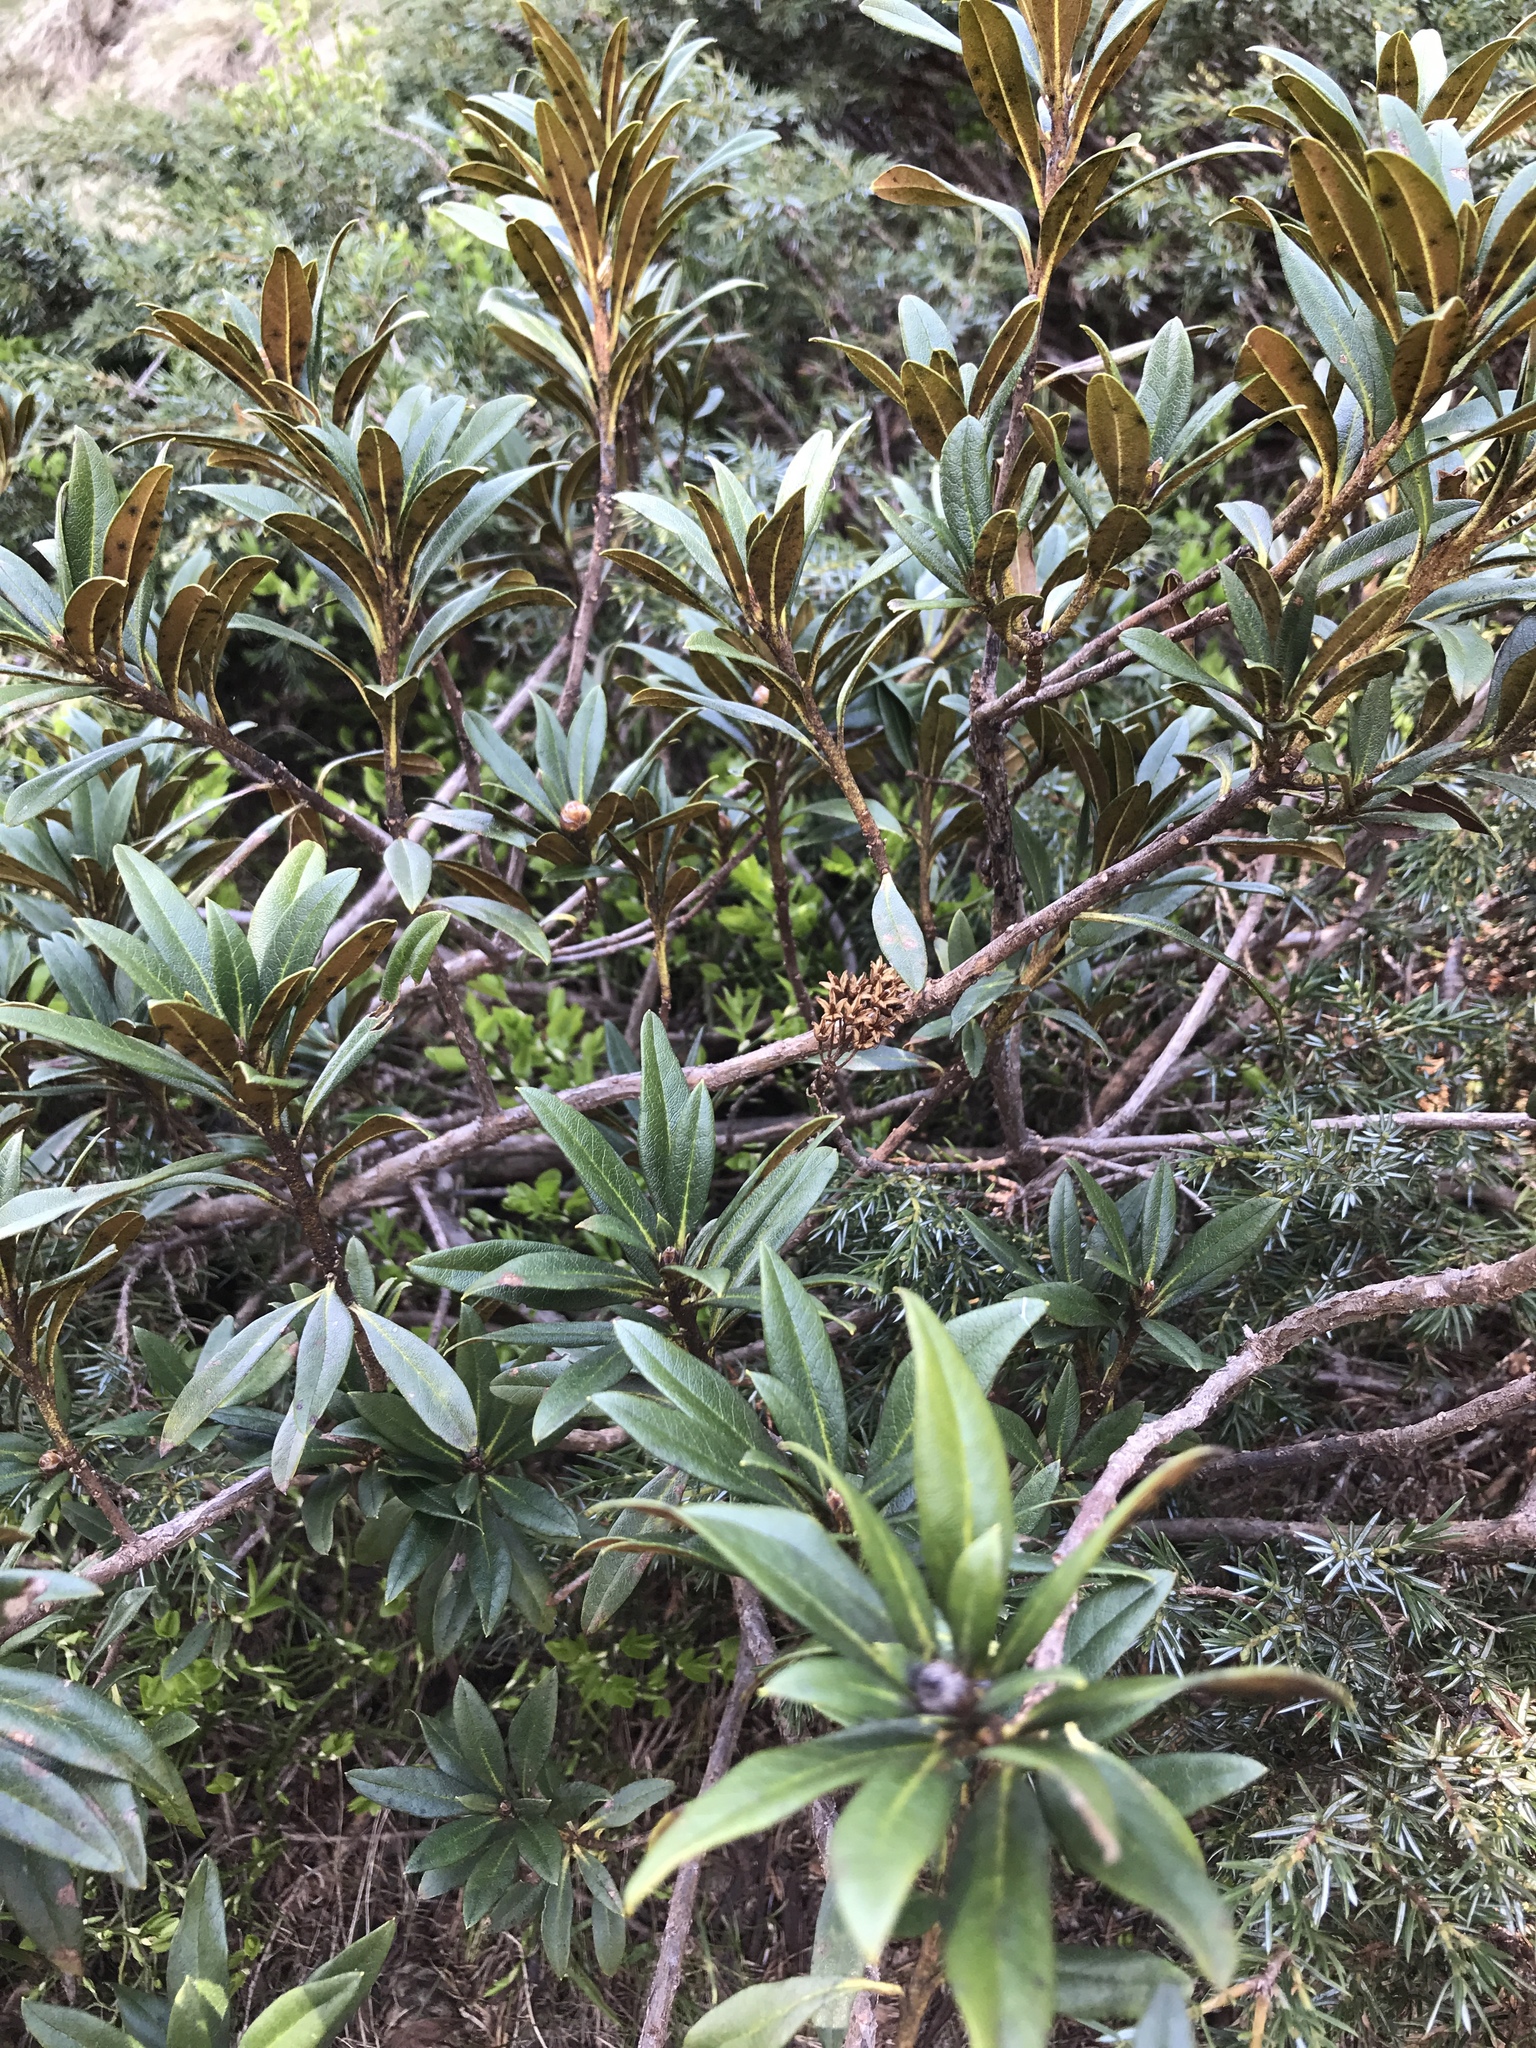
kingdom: Plantae
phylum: Tracheophyta
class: Magnoliopsida
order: Ericales
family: Ericaceae
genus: Rhododendron
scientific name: Rhododendron ferrugineum
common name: Alpenrose
